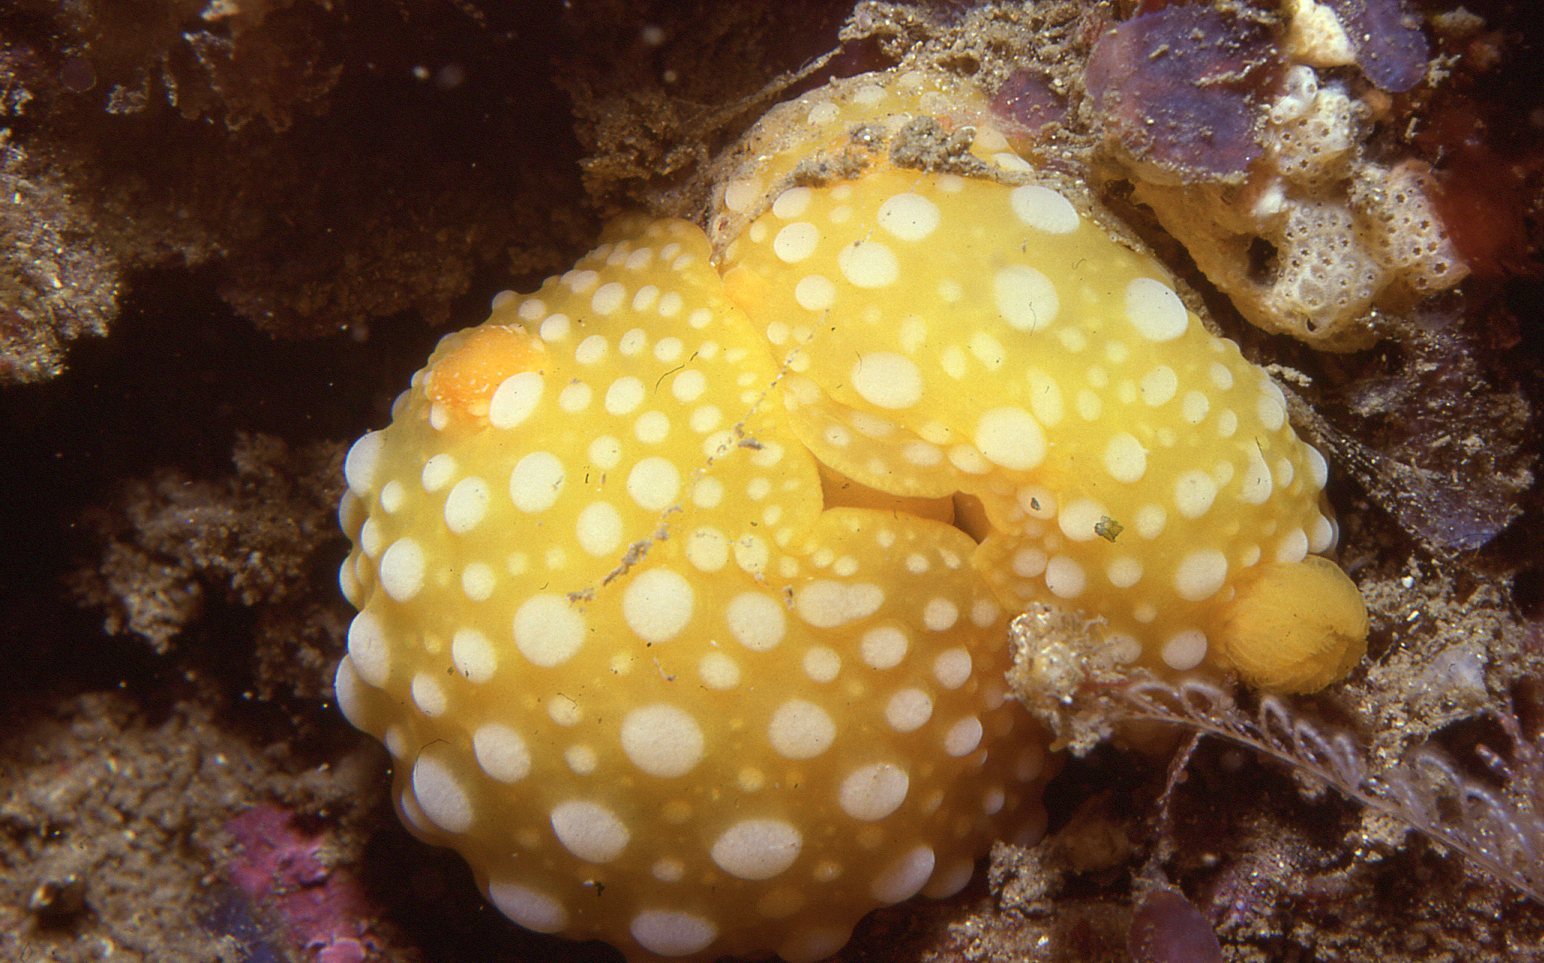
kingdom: Animalia
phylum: Mollusca
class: Gastropoda
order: Nudibranchia
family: Dorididae
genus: Doris
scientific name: Doris chrysoderma
